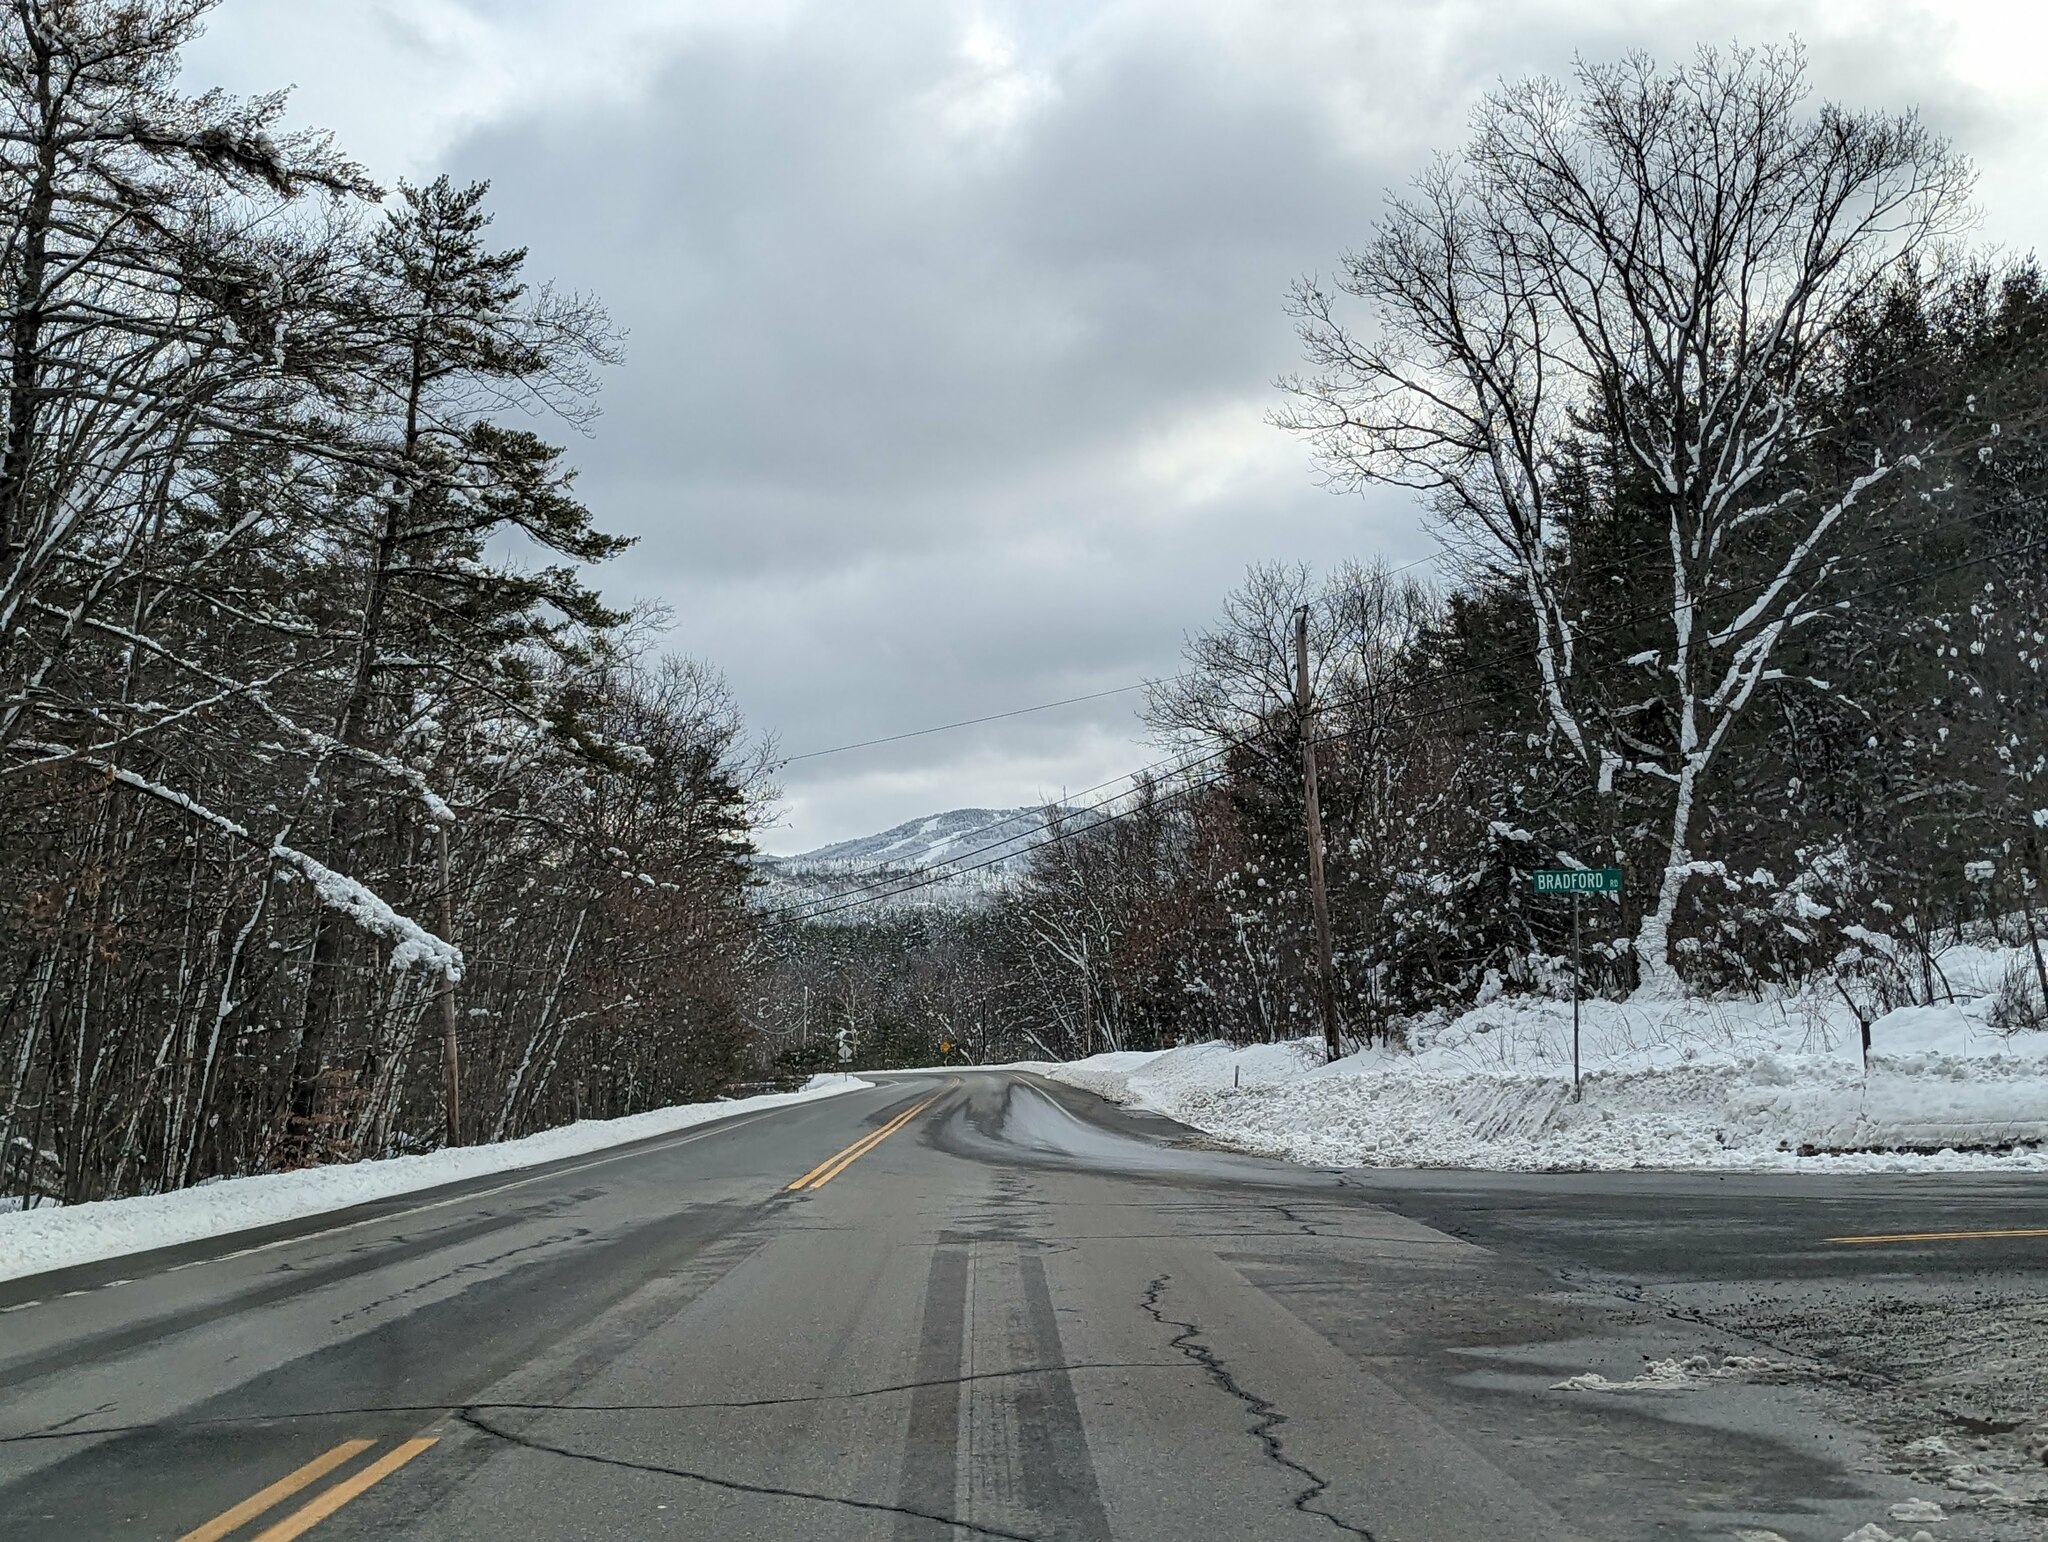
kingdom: Plantae
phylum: Tracheophyta
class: Pinopsida
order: Pinales
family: Pinaceae
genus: Pinus
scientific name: Pinus strobus
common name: Weymouth pine
